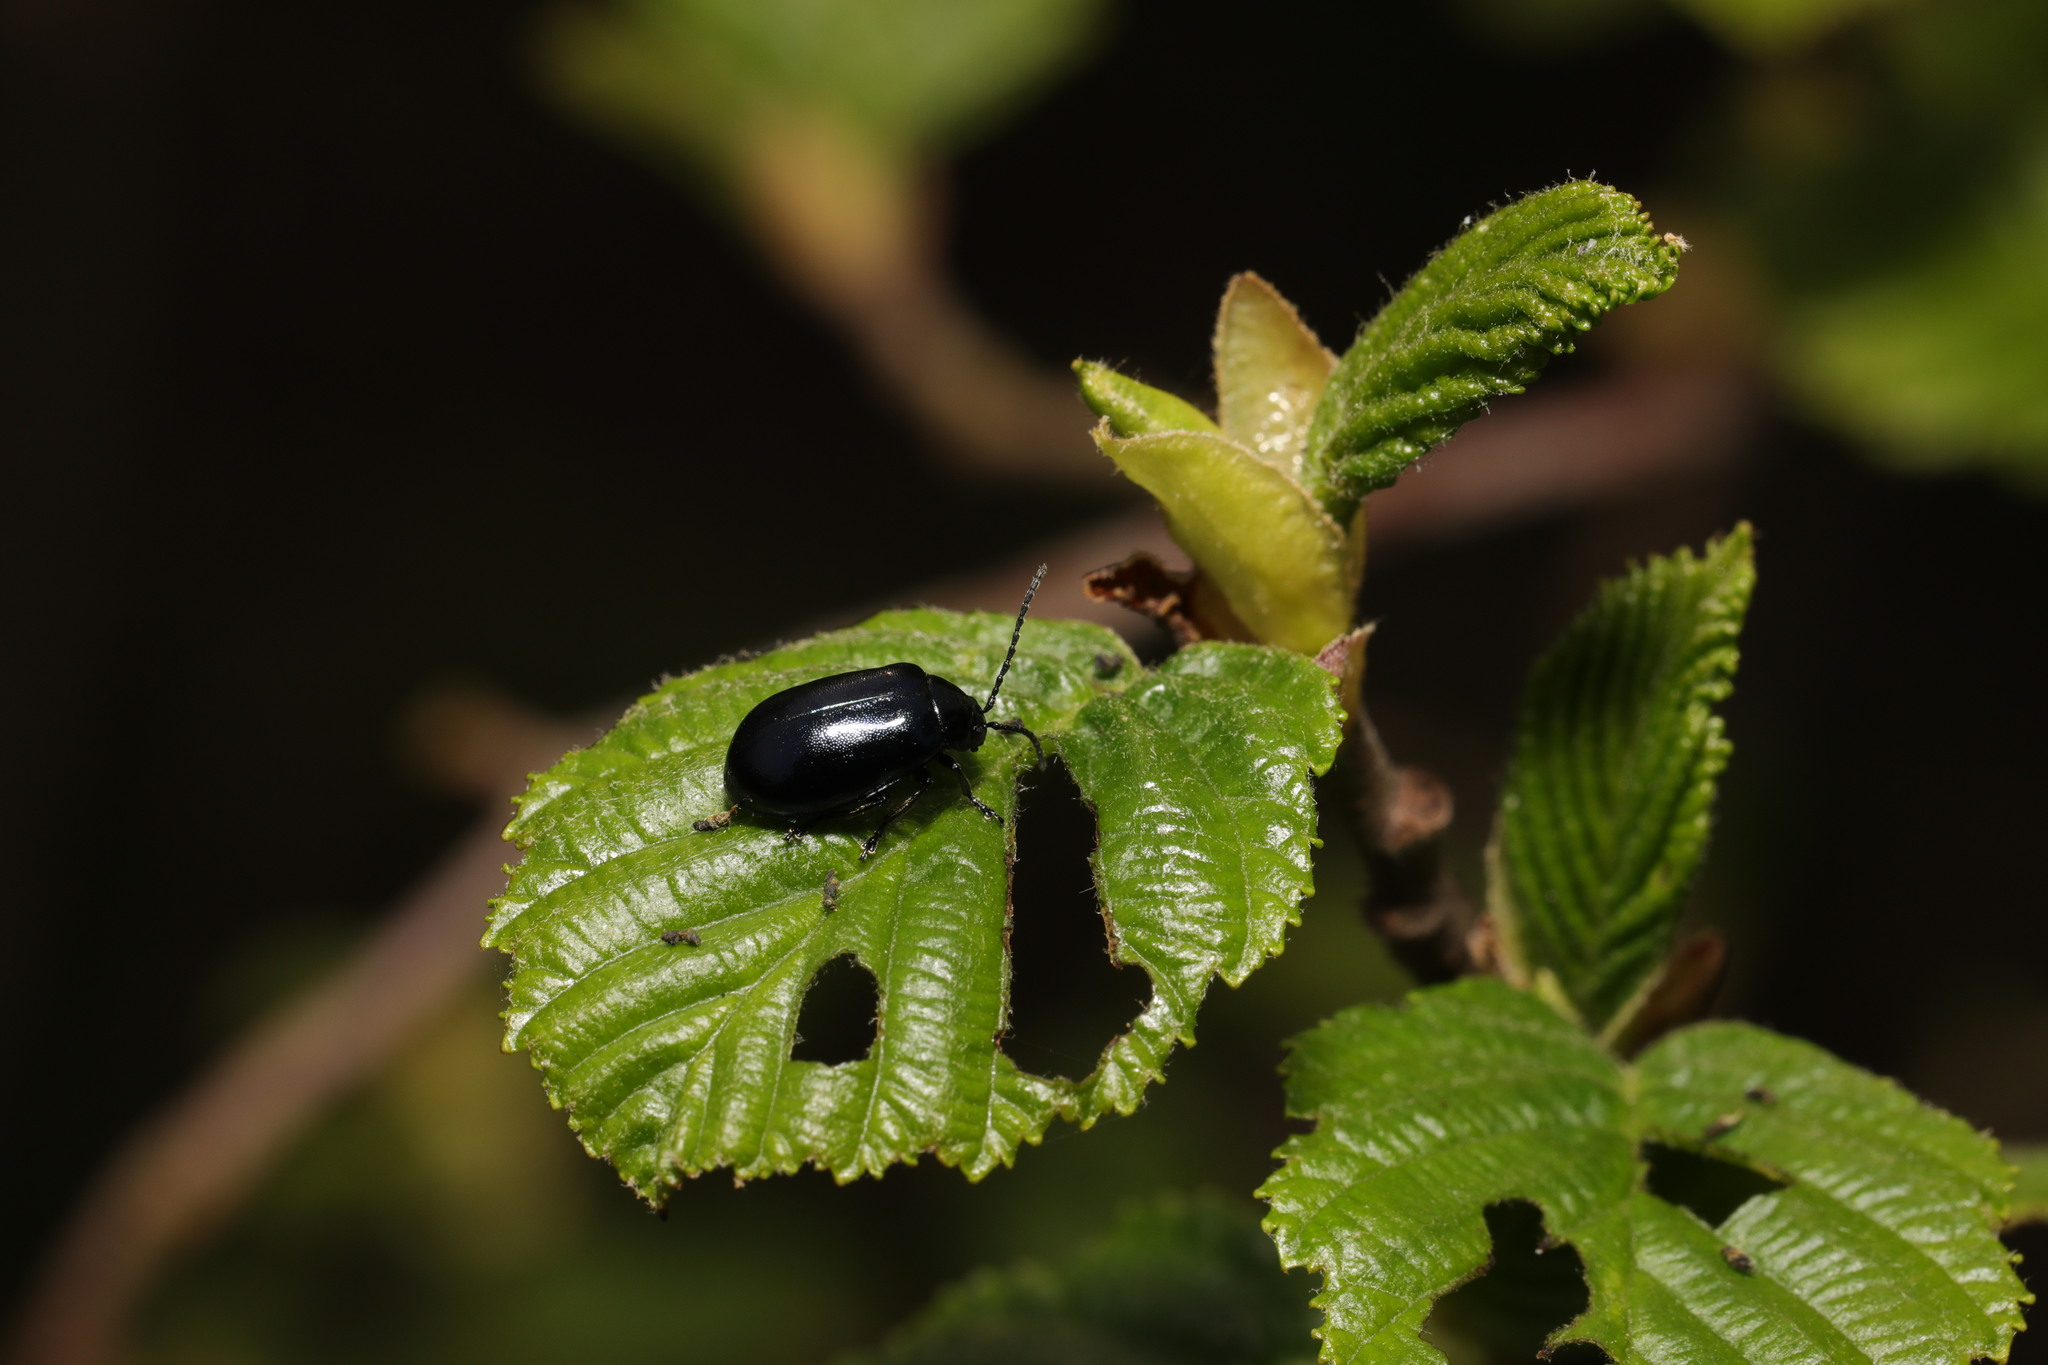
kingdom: Animalia
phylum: Arthropoda
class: Insecta
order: Coleoptera
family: Chrysomelidae
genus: Agelastica
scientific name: Agelastica alni
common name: Alder leaf beetle
